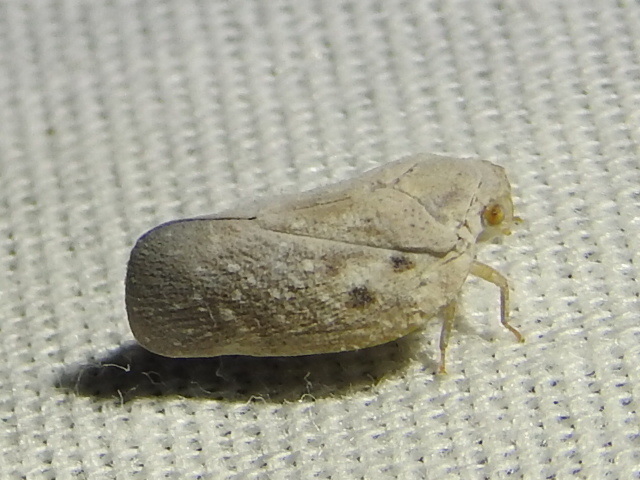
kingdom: Animalia
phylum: Arthropoda
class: Insecta
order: Hemiptera
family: Flatidae
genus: Metcalfa
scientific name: Metcalfa pruinosa
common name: Citrus flatid planthopper
